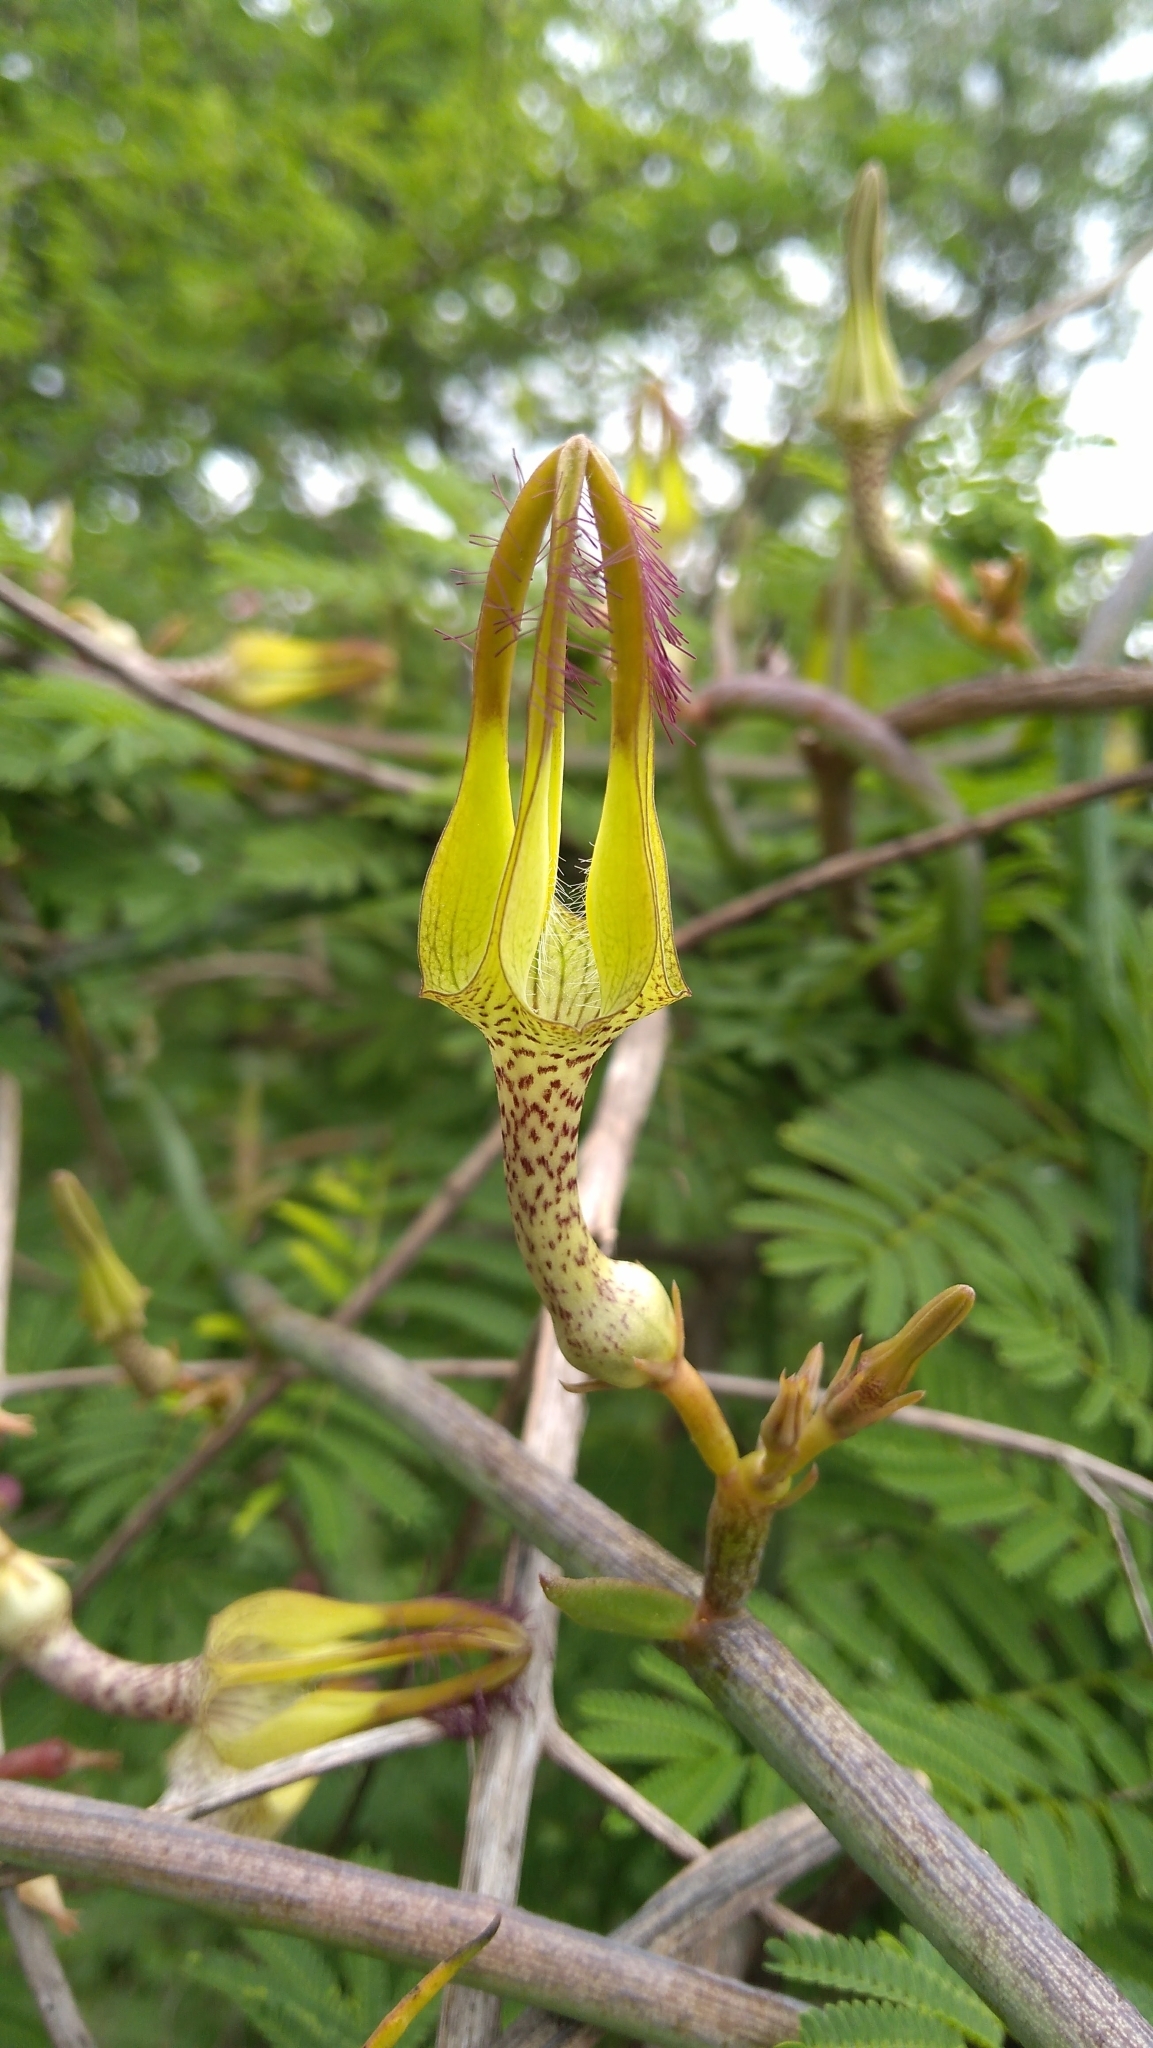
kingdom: Plantae
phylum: Tracheophyta
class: Magnoliopsida
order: Gentianales
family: Apocynaceae
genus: Ceropegia
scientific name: Ceropegia juncea
